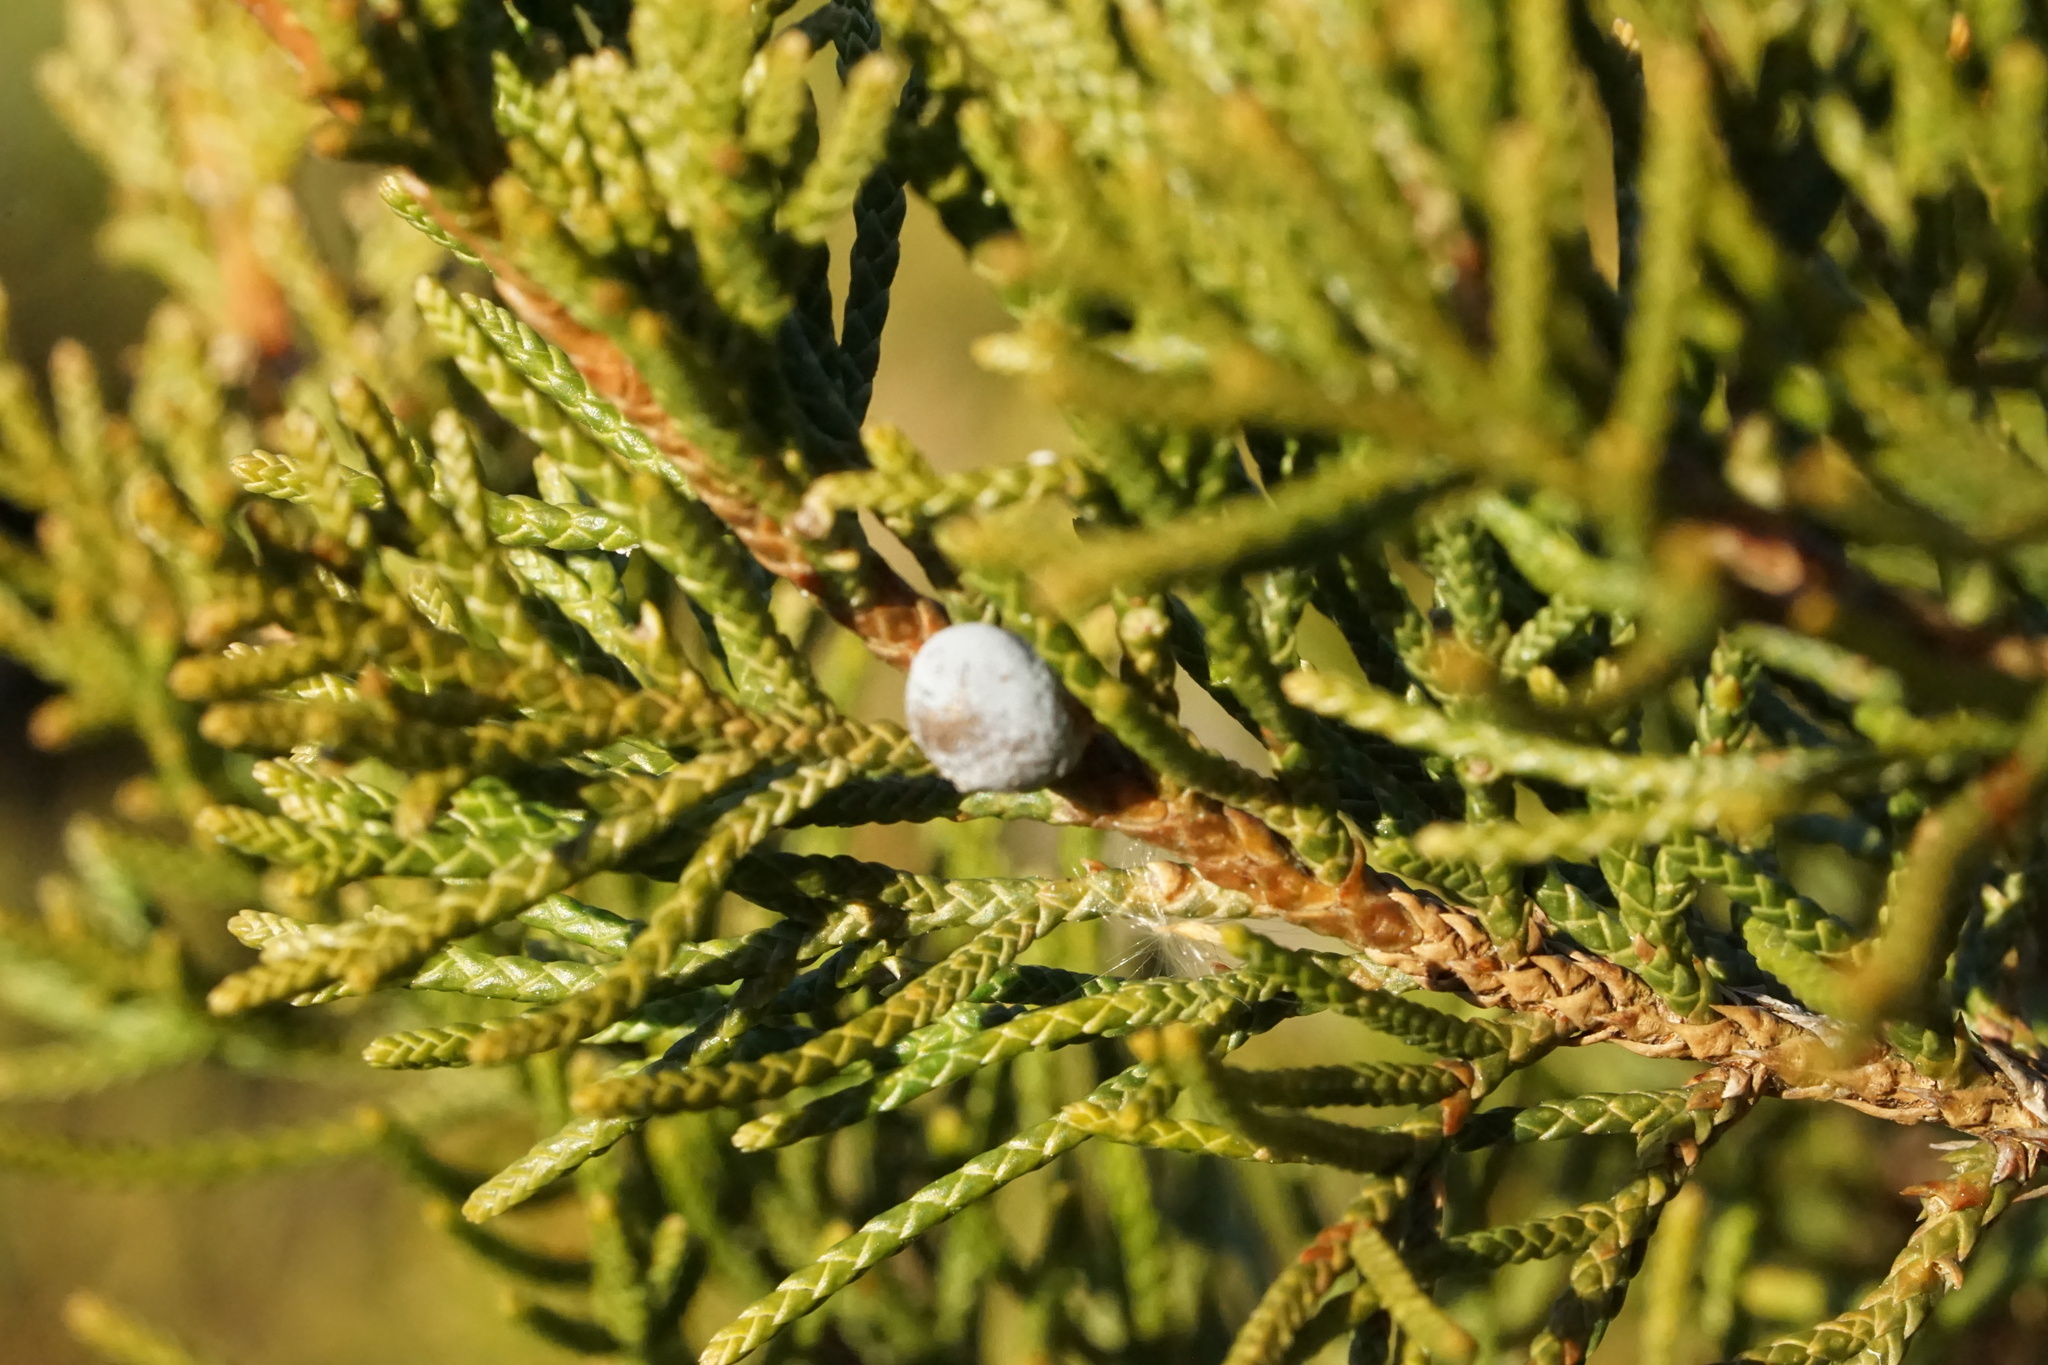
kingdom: Plantae
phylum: Tracheophyta
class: Pinopsida
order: Pinales
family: Cupressaceae
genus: Juniperus
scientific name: Juniperus virginiana
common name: Red juniper
